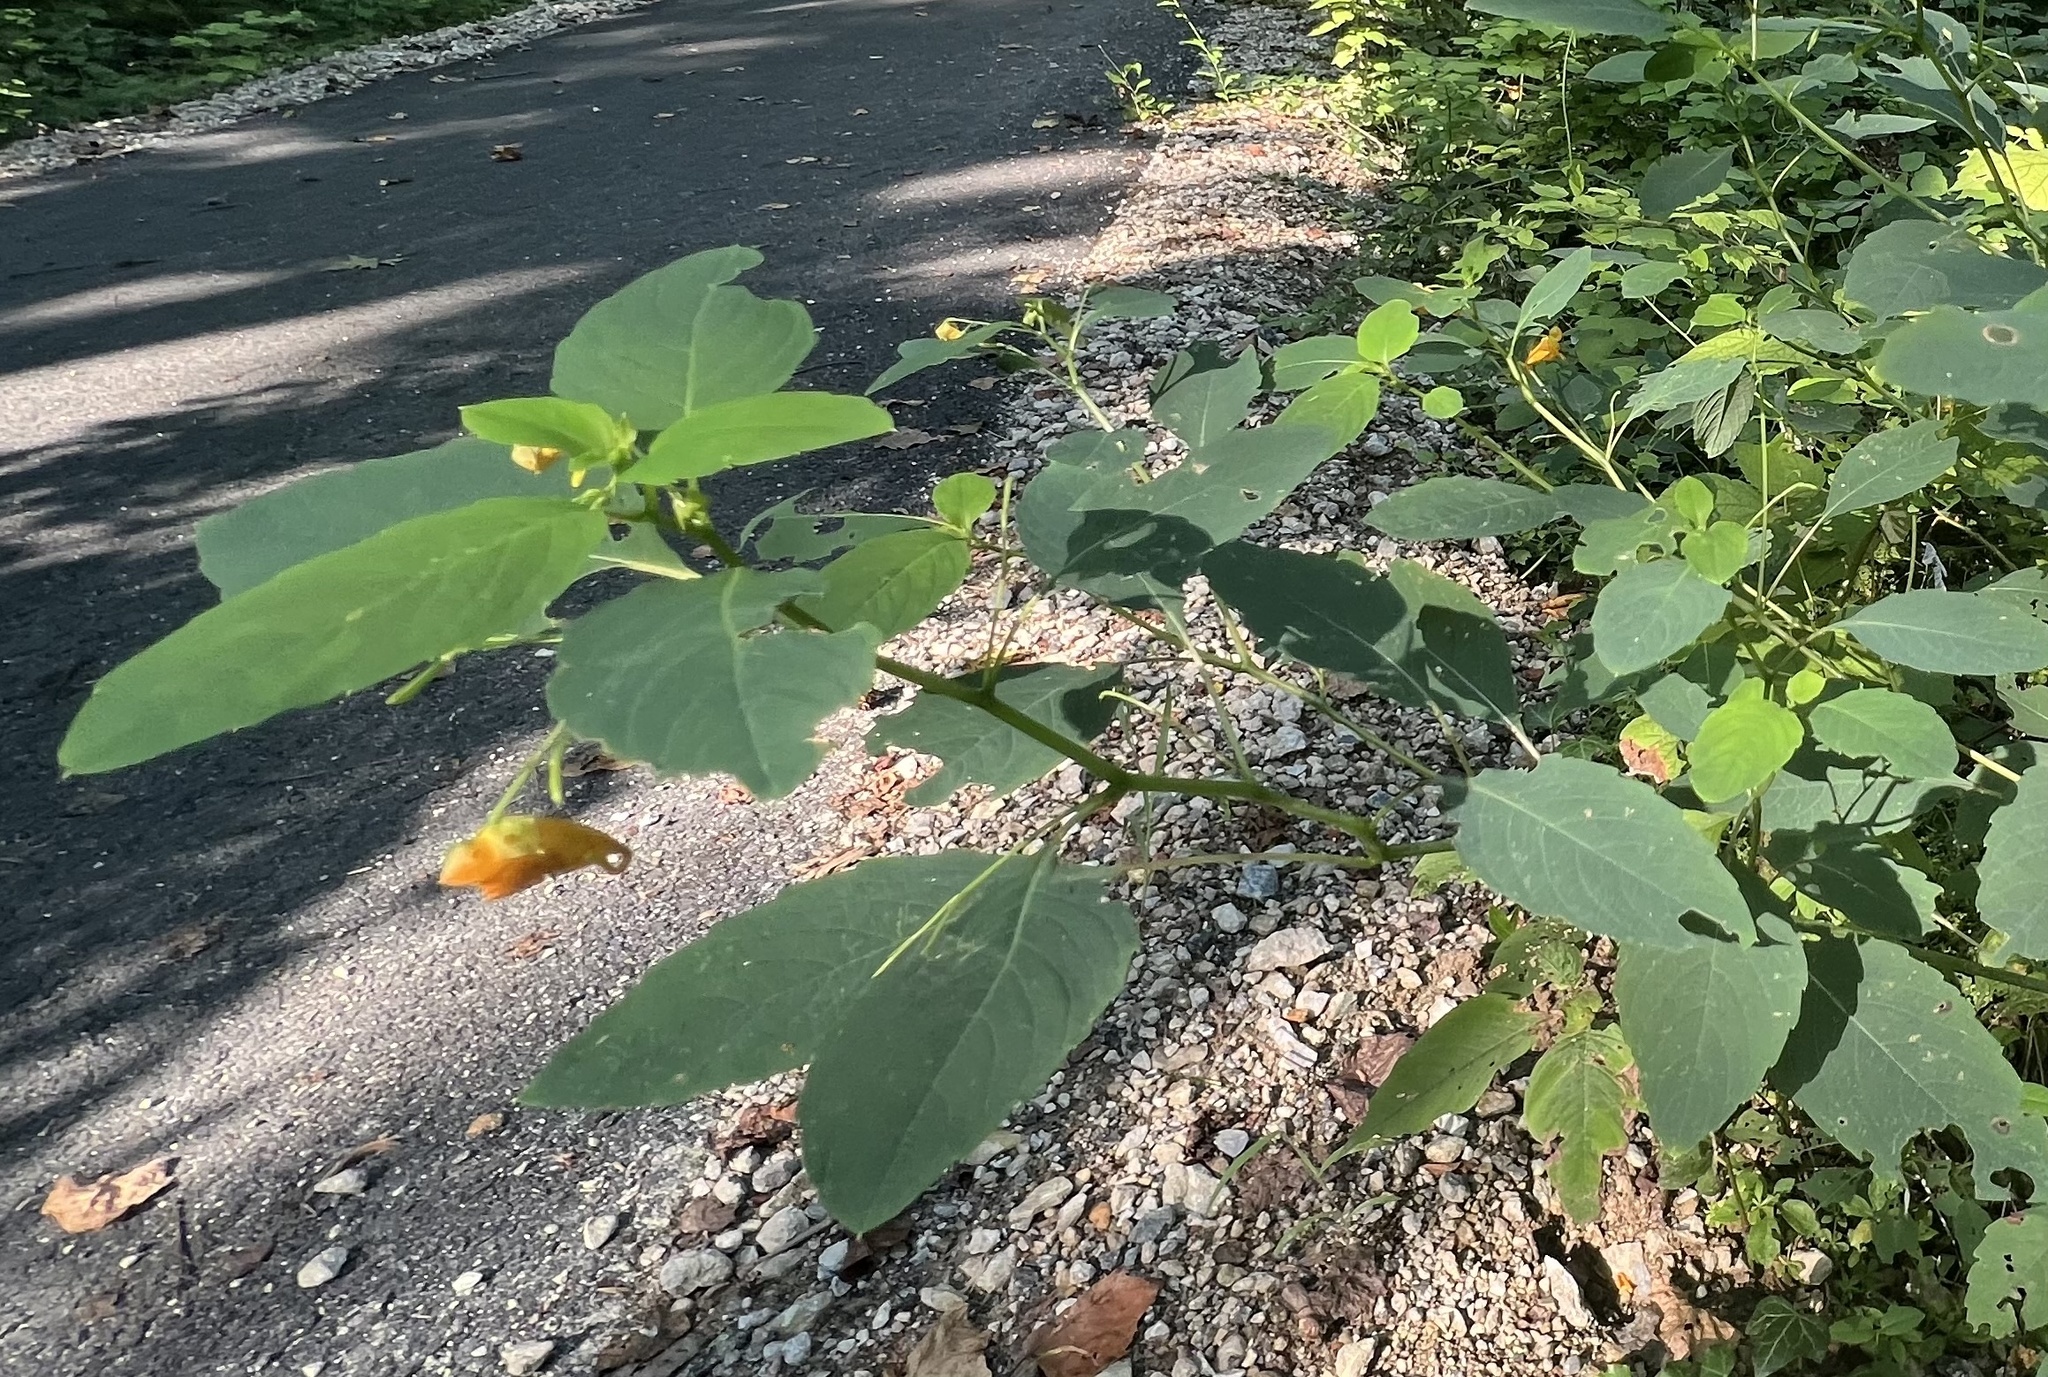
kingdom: Plantae
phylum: Tracheophyta
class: Magnoliopsida
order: Ericales
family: Balsaminaceae
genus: Impatiens
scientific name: Impatiens capensis
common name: Orange balsam
